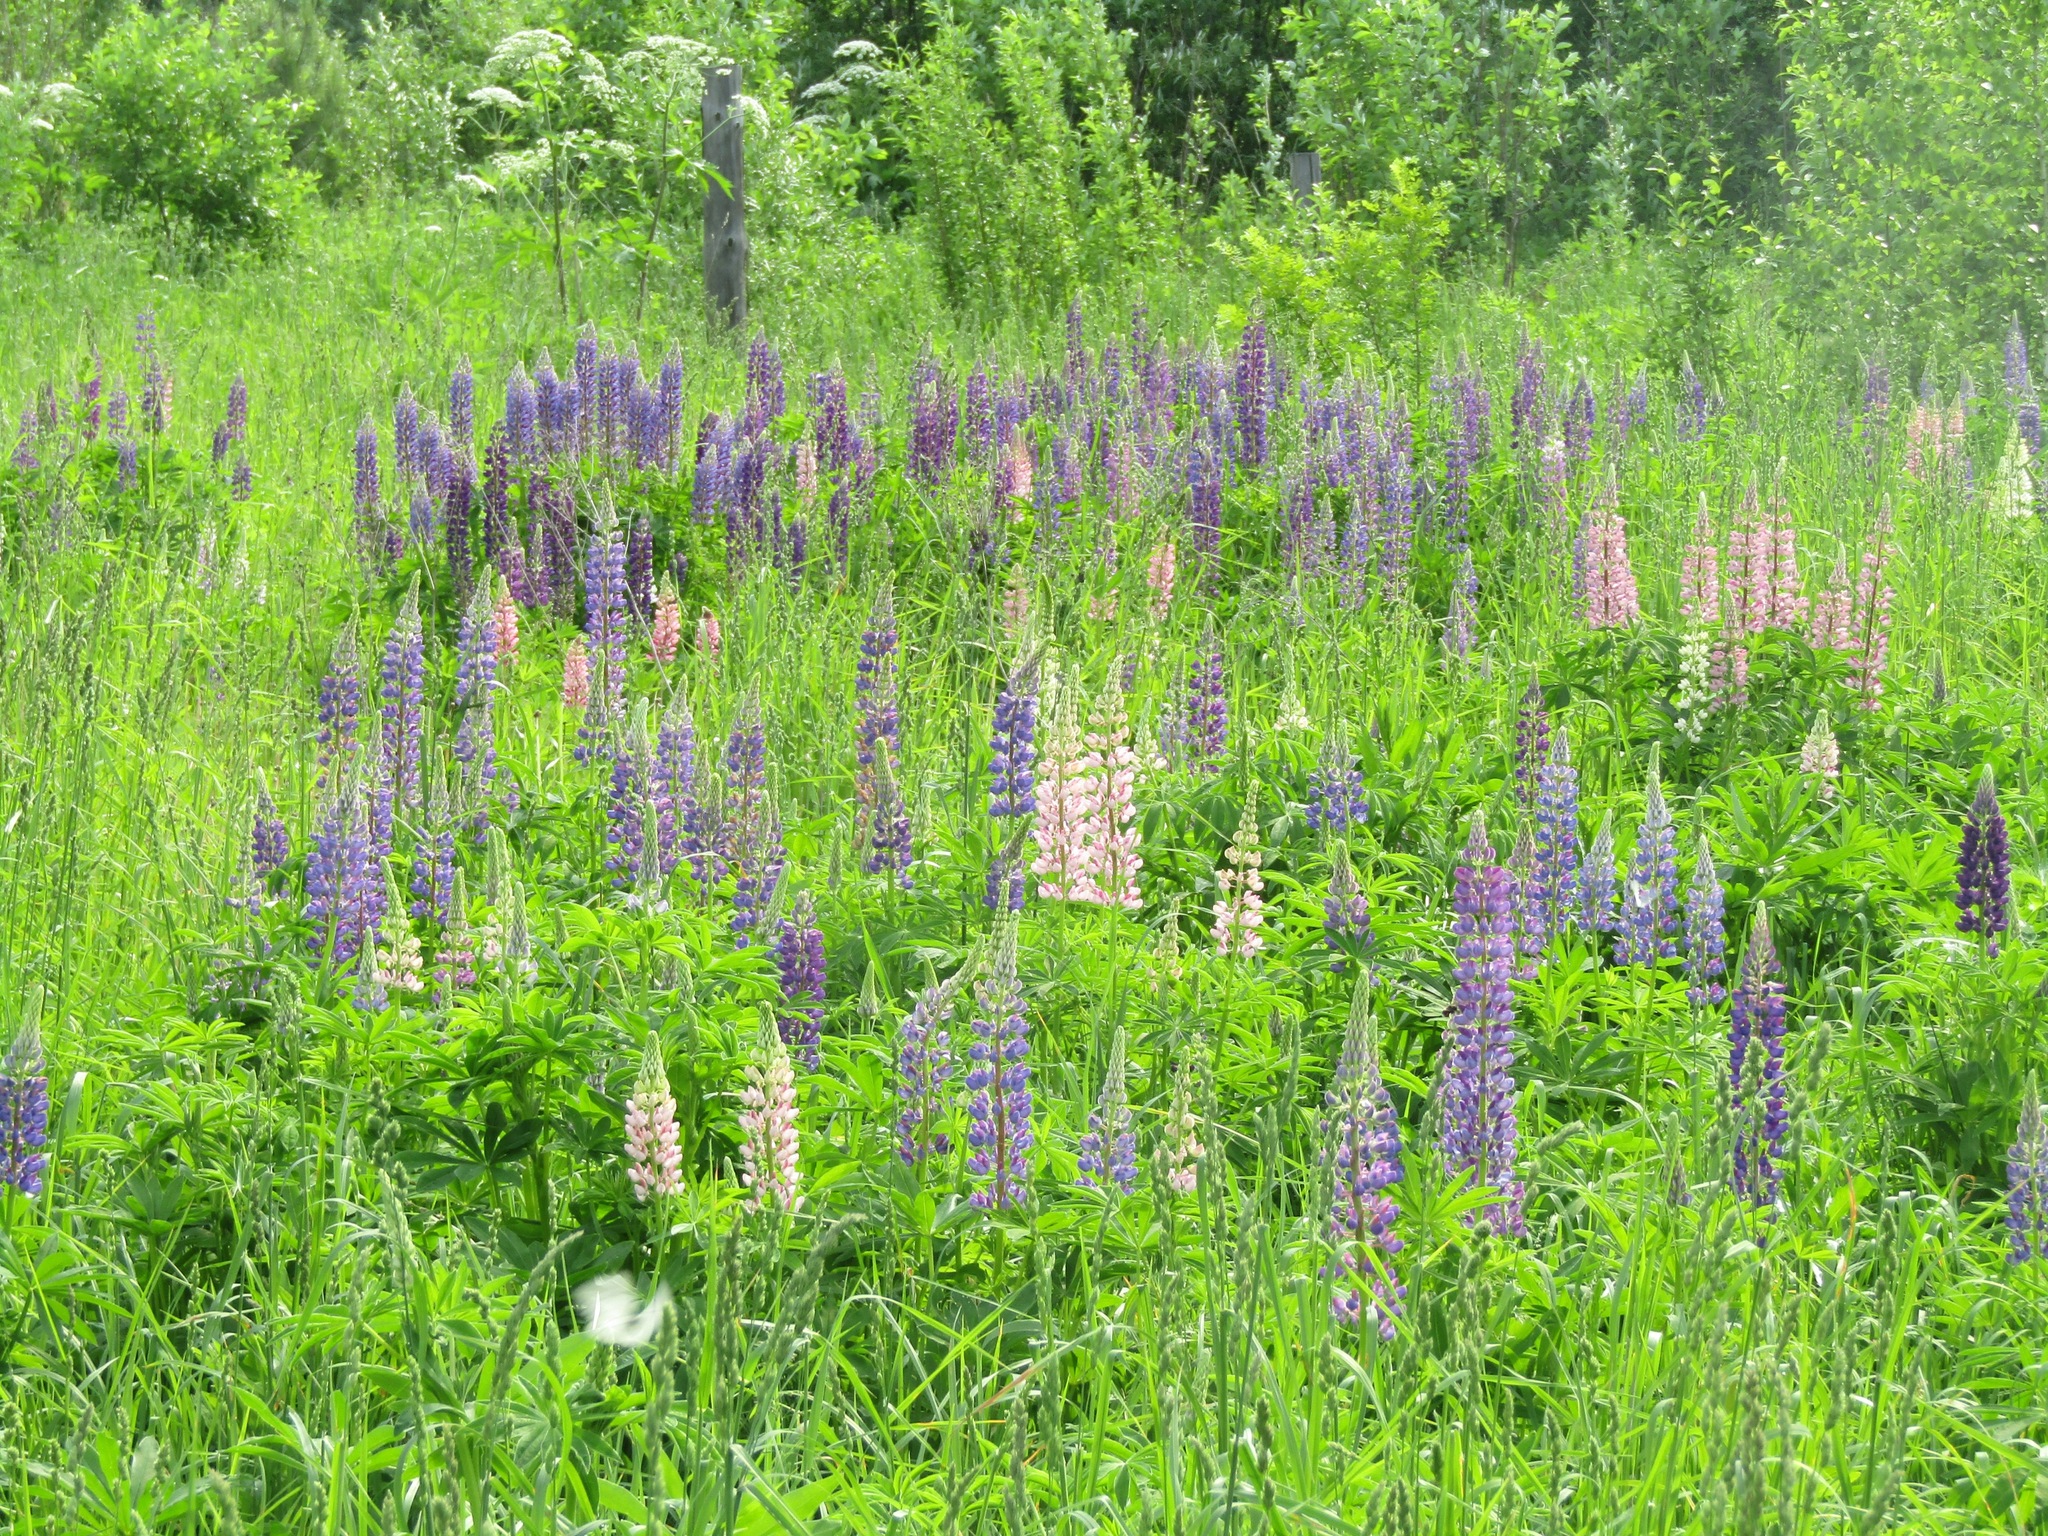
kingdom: Plantae
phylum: Tracheophyta
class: Magnoliopsida
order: Fabales
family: Fabaceae
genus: Lupinus
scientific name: Lupinus polyphyllus
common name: Garden lupin
